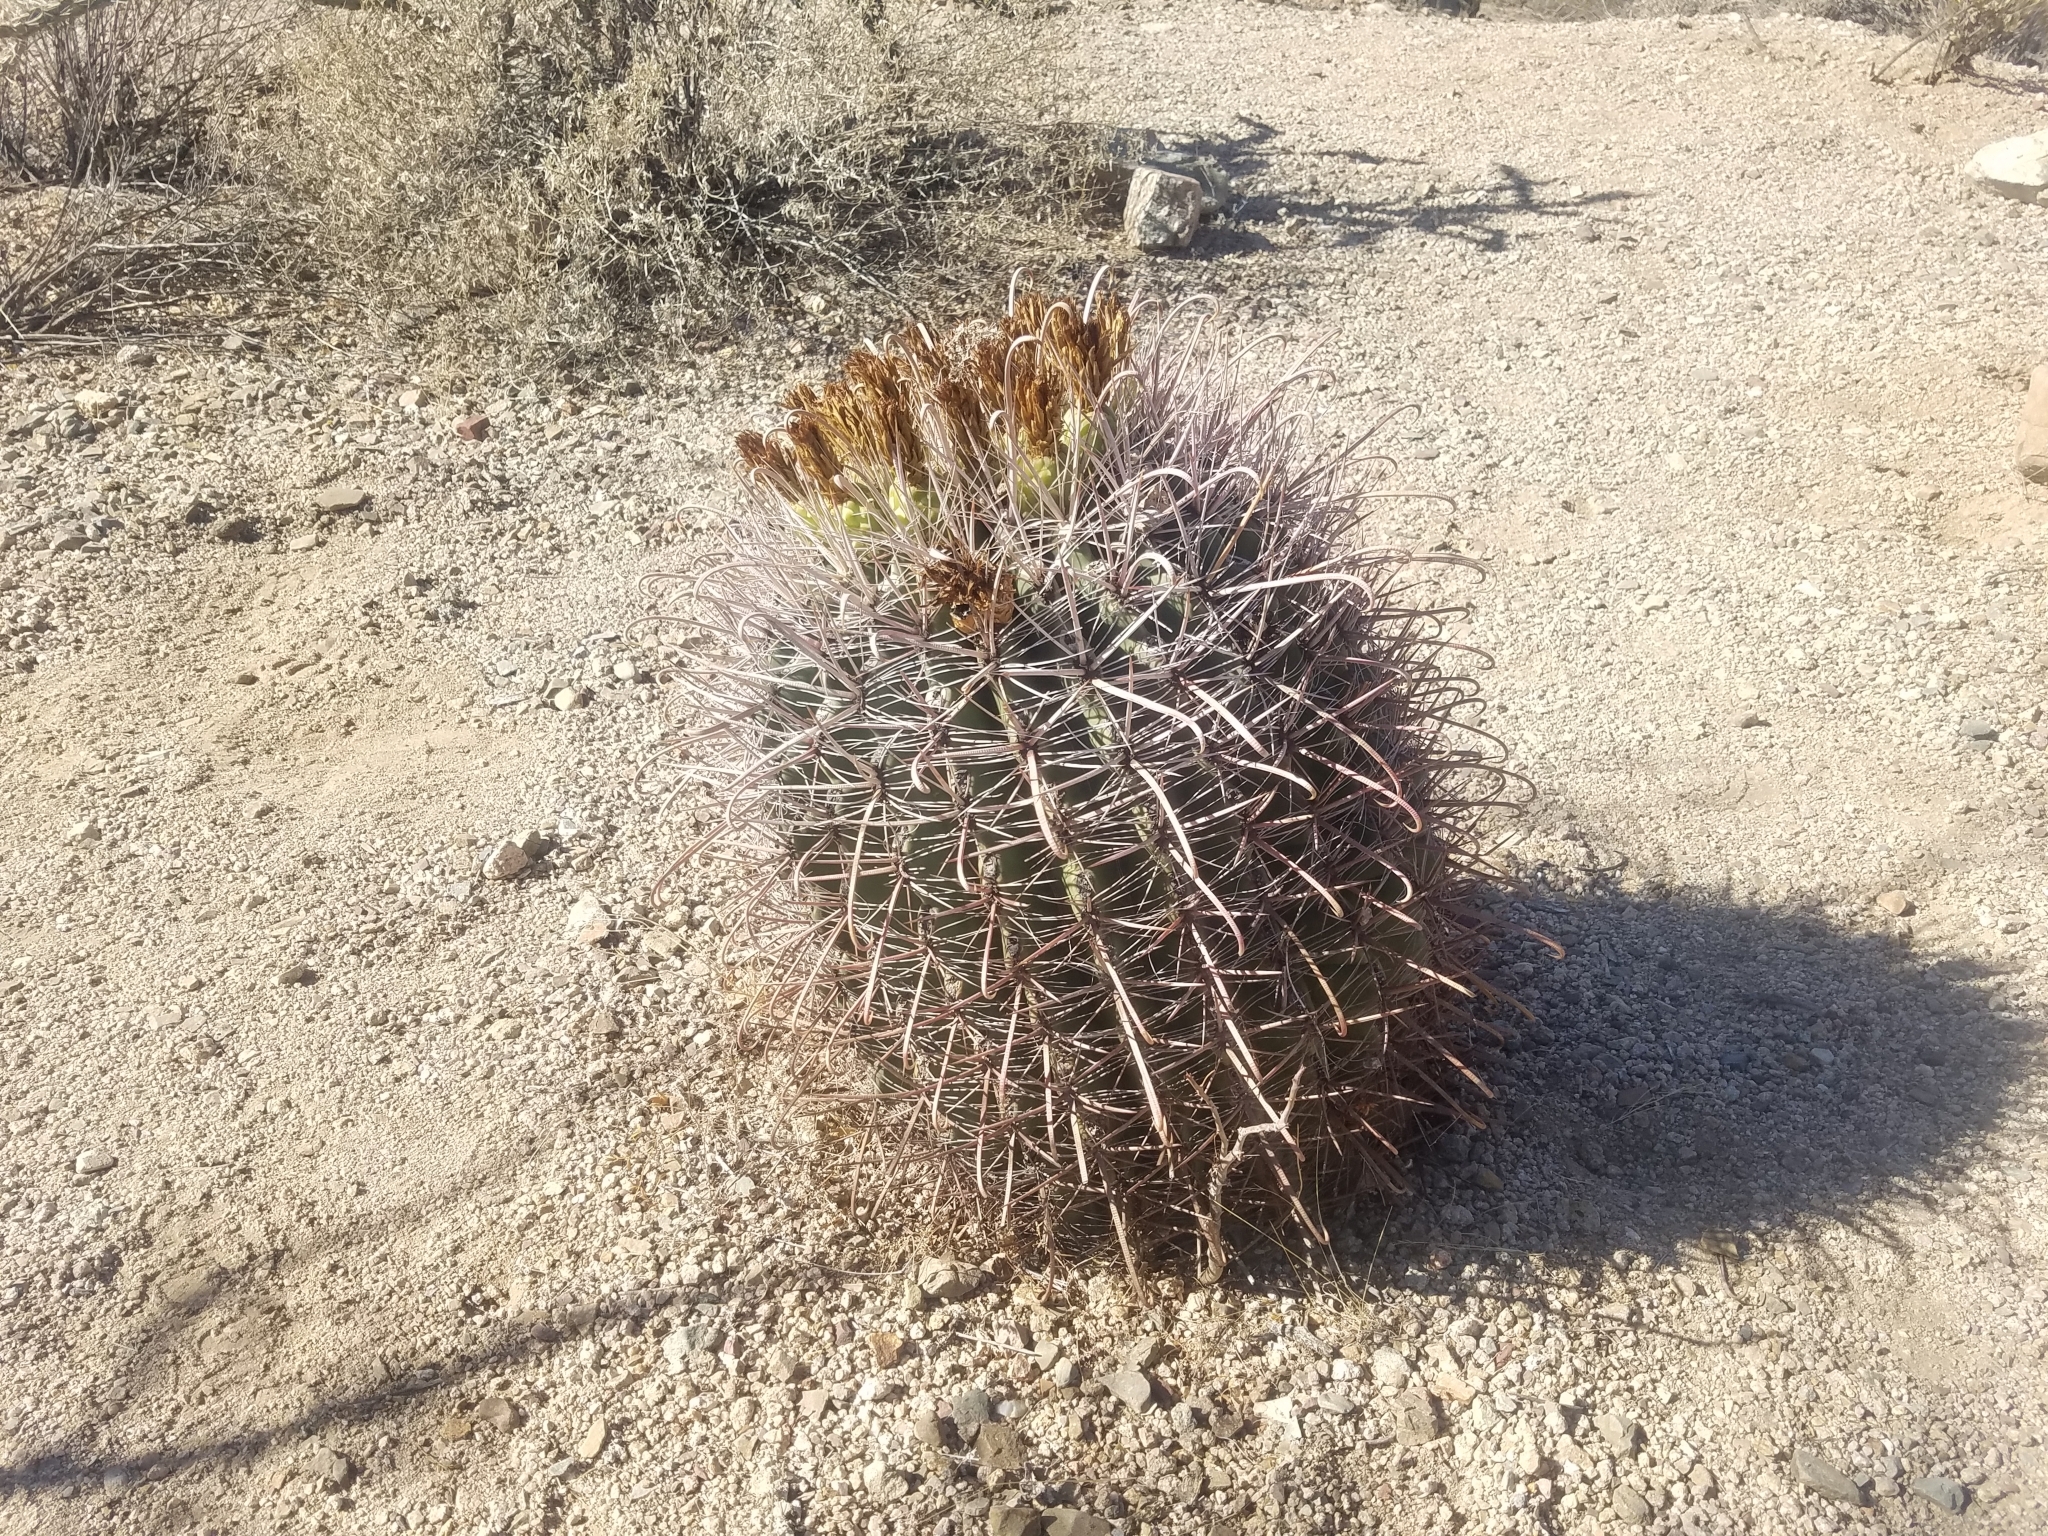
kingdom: Plantae
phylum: Tracheophyta
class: Magnoliopsida
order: Caryophyllales
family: Cactaceae
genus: Ferocactus
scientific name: Ferocactus wislizeni
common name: Candy barrel cactus
